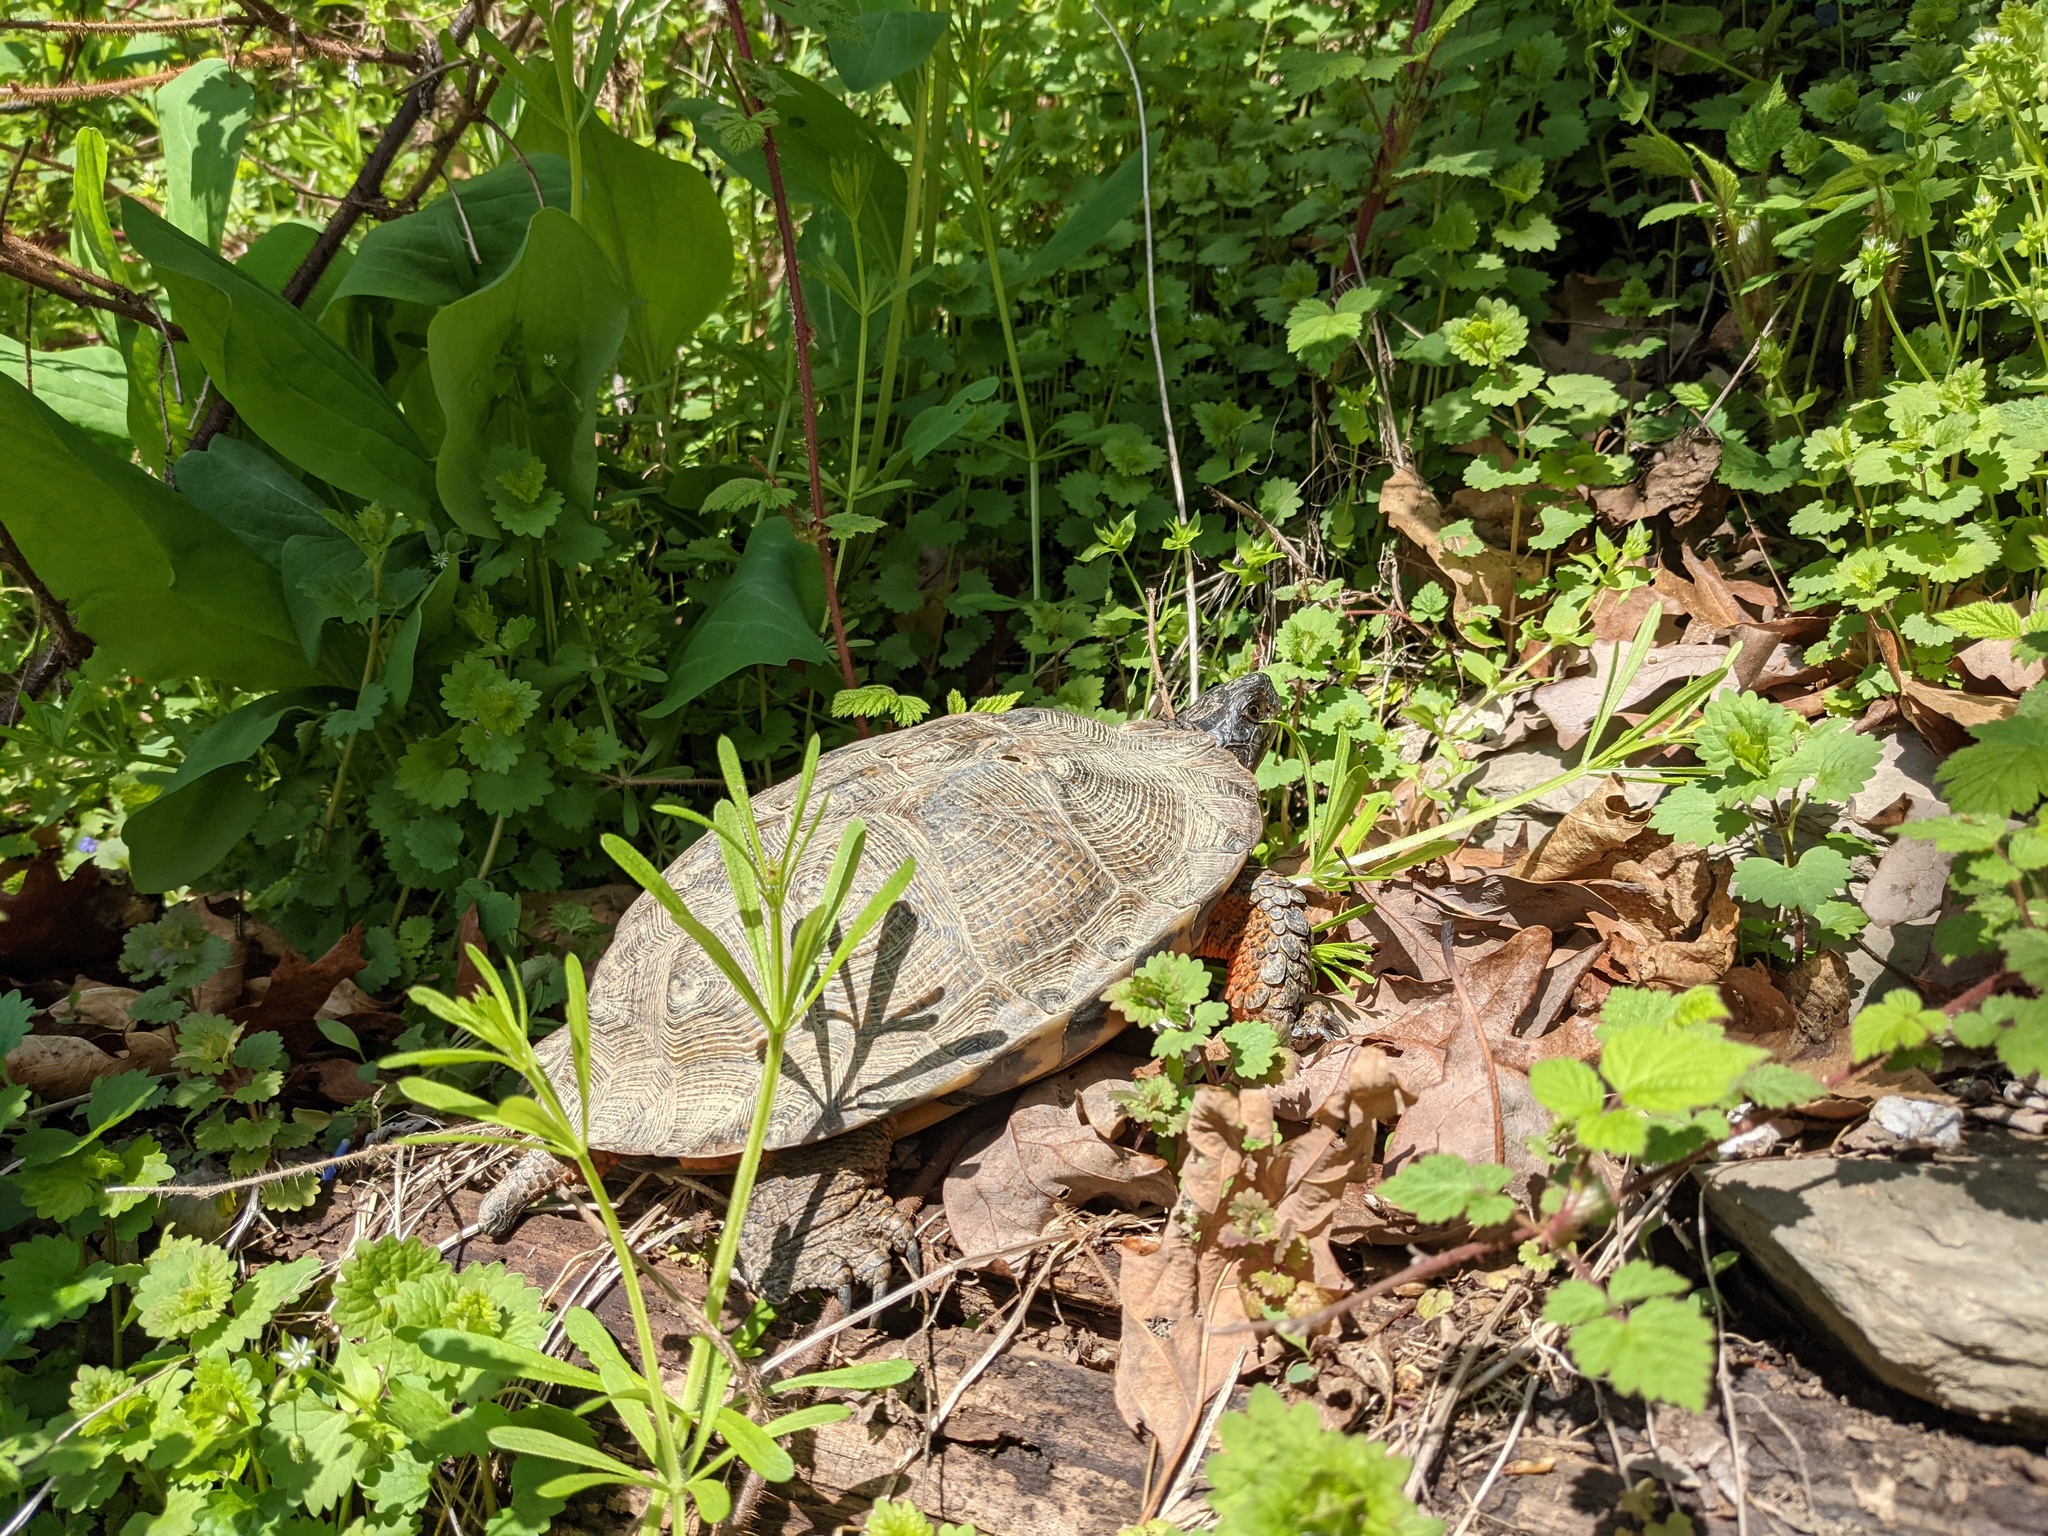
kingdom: Animalia
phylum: Chordata
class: Testudines
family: Emydidae
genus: Glyptemys
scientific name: Glyptemys insculpta
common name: Wood turtle
